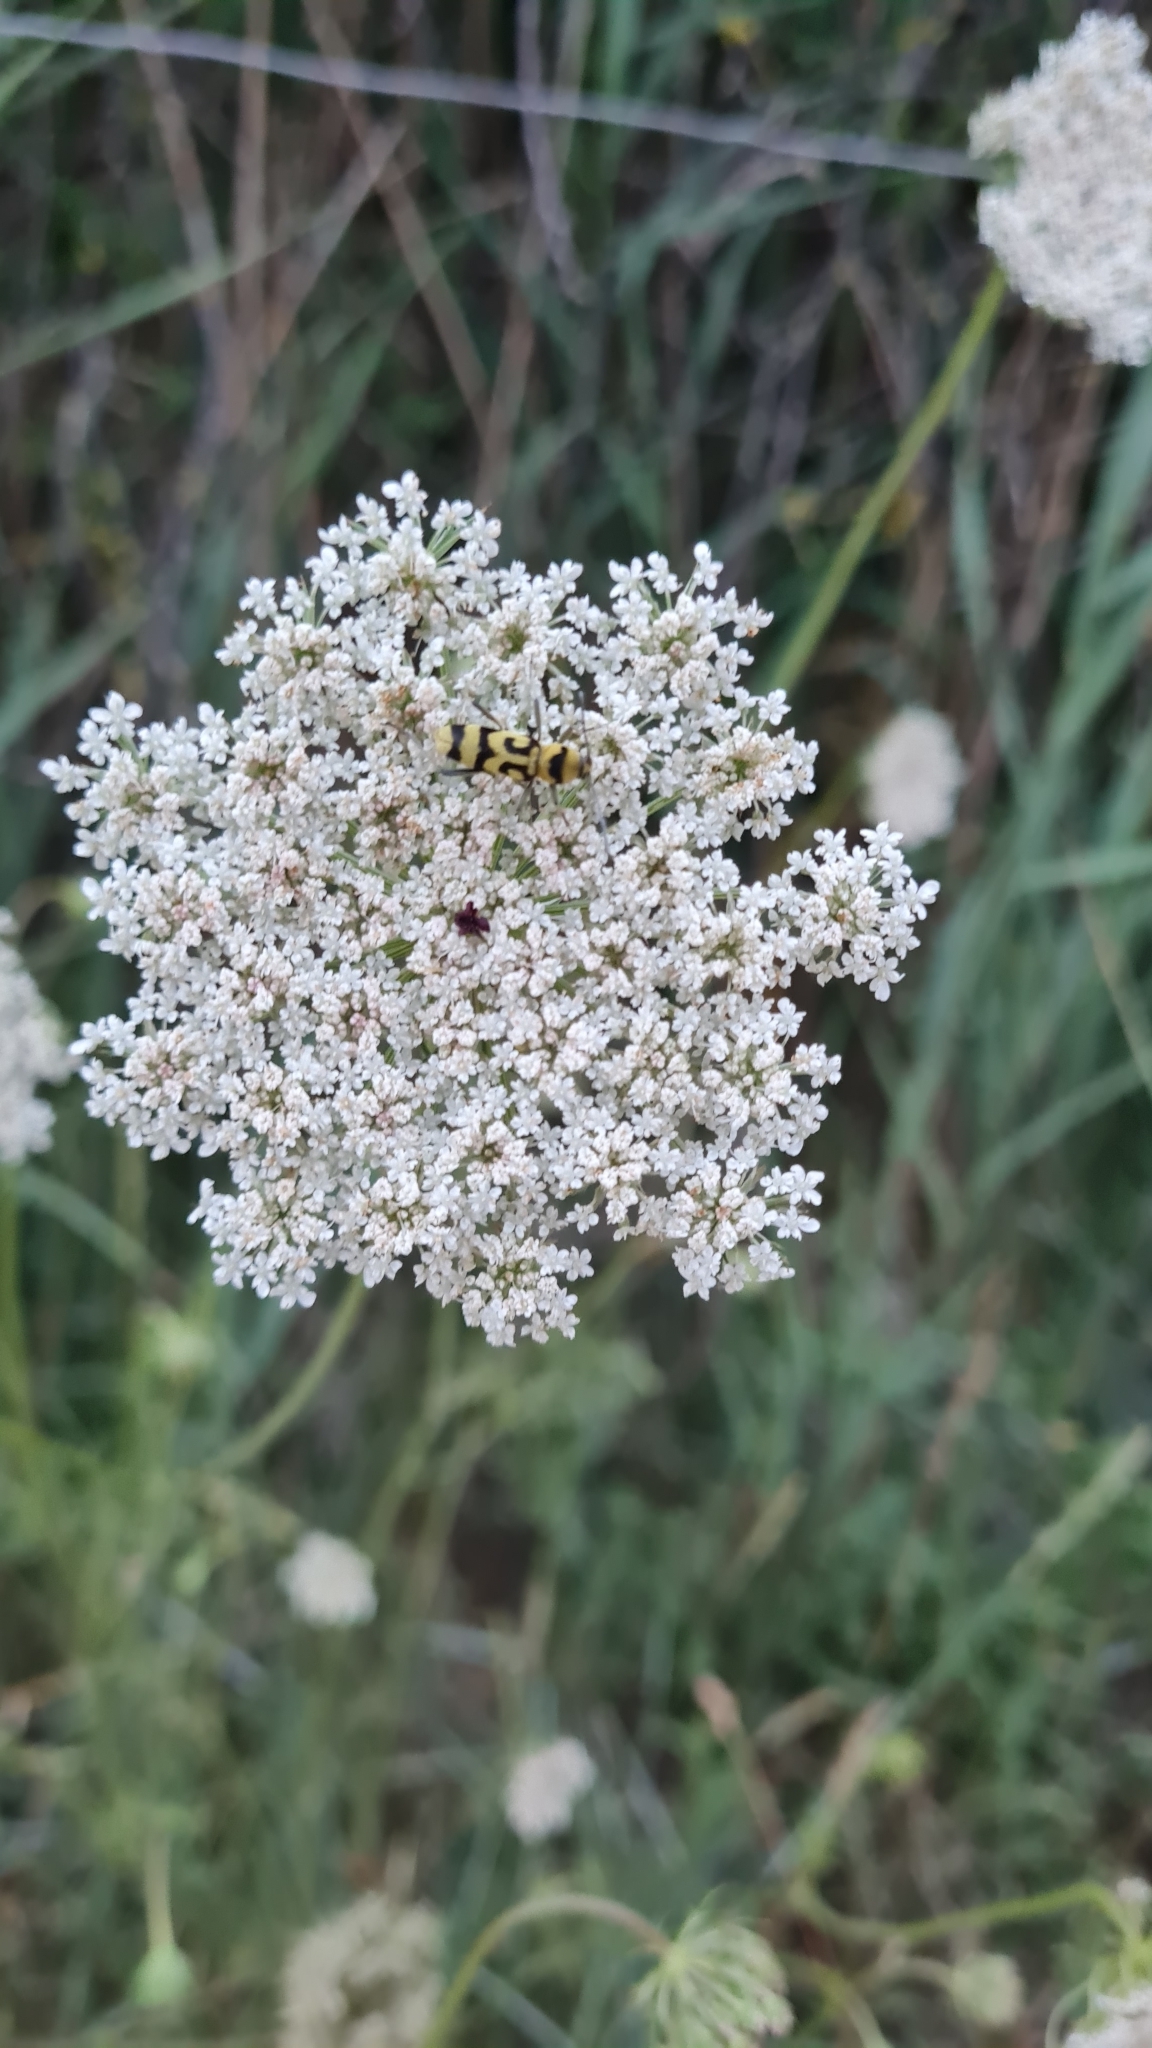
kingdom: Animalia
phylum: Arthropoda
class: Insecta
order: Coleoptera
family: Cerambycidae
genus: Chlorophorus
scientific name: Chlorophorus varius
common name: Grape wood borer
